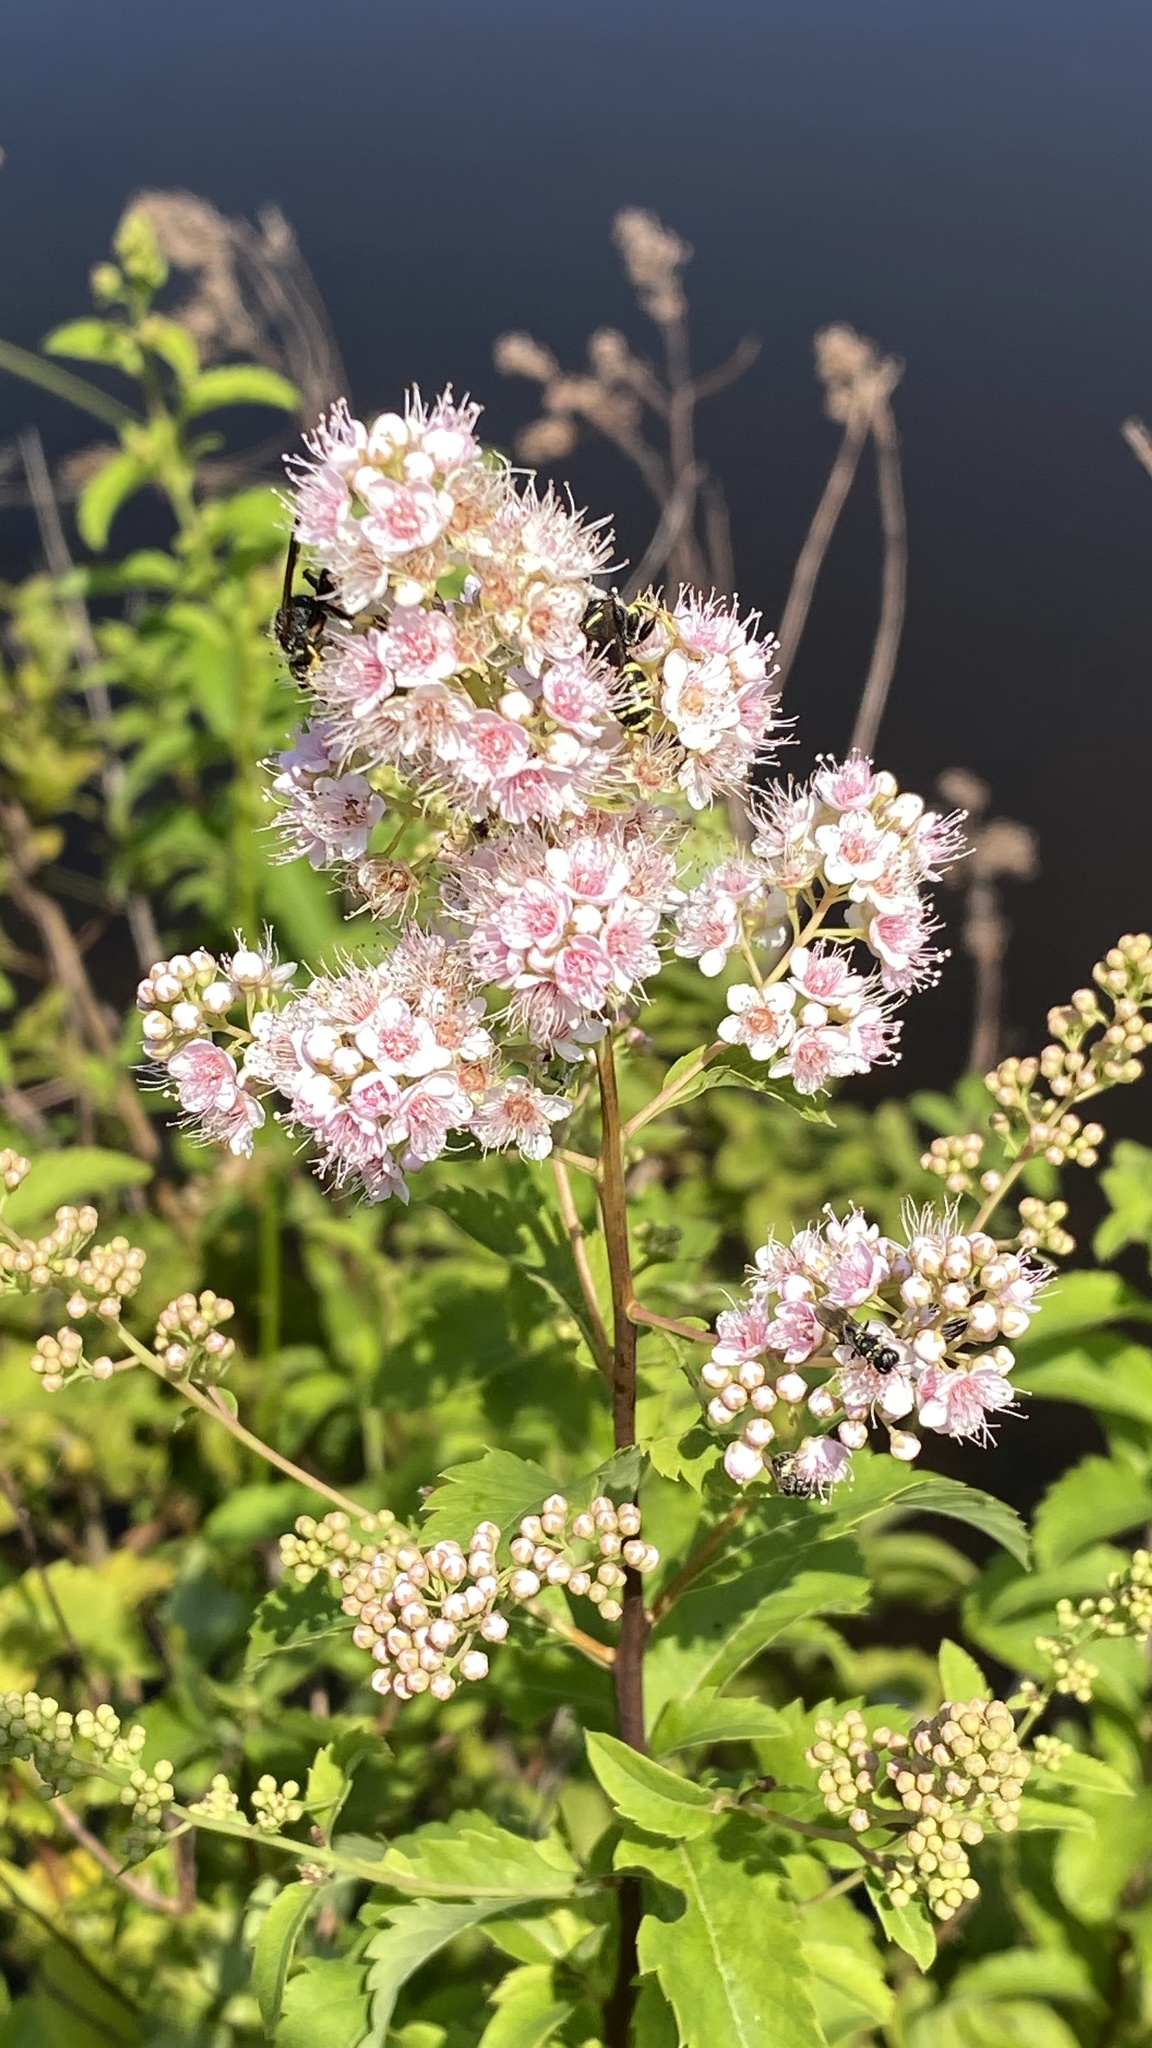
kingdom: Plantae
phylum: Tracheophyta
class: Magnoliopsida
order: Rosales
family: Rosaceae
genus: Spiraea
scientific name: Spiraea alba
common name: Pale bridewort
